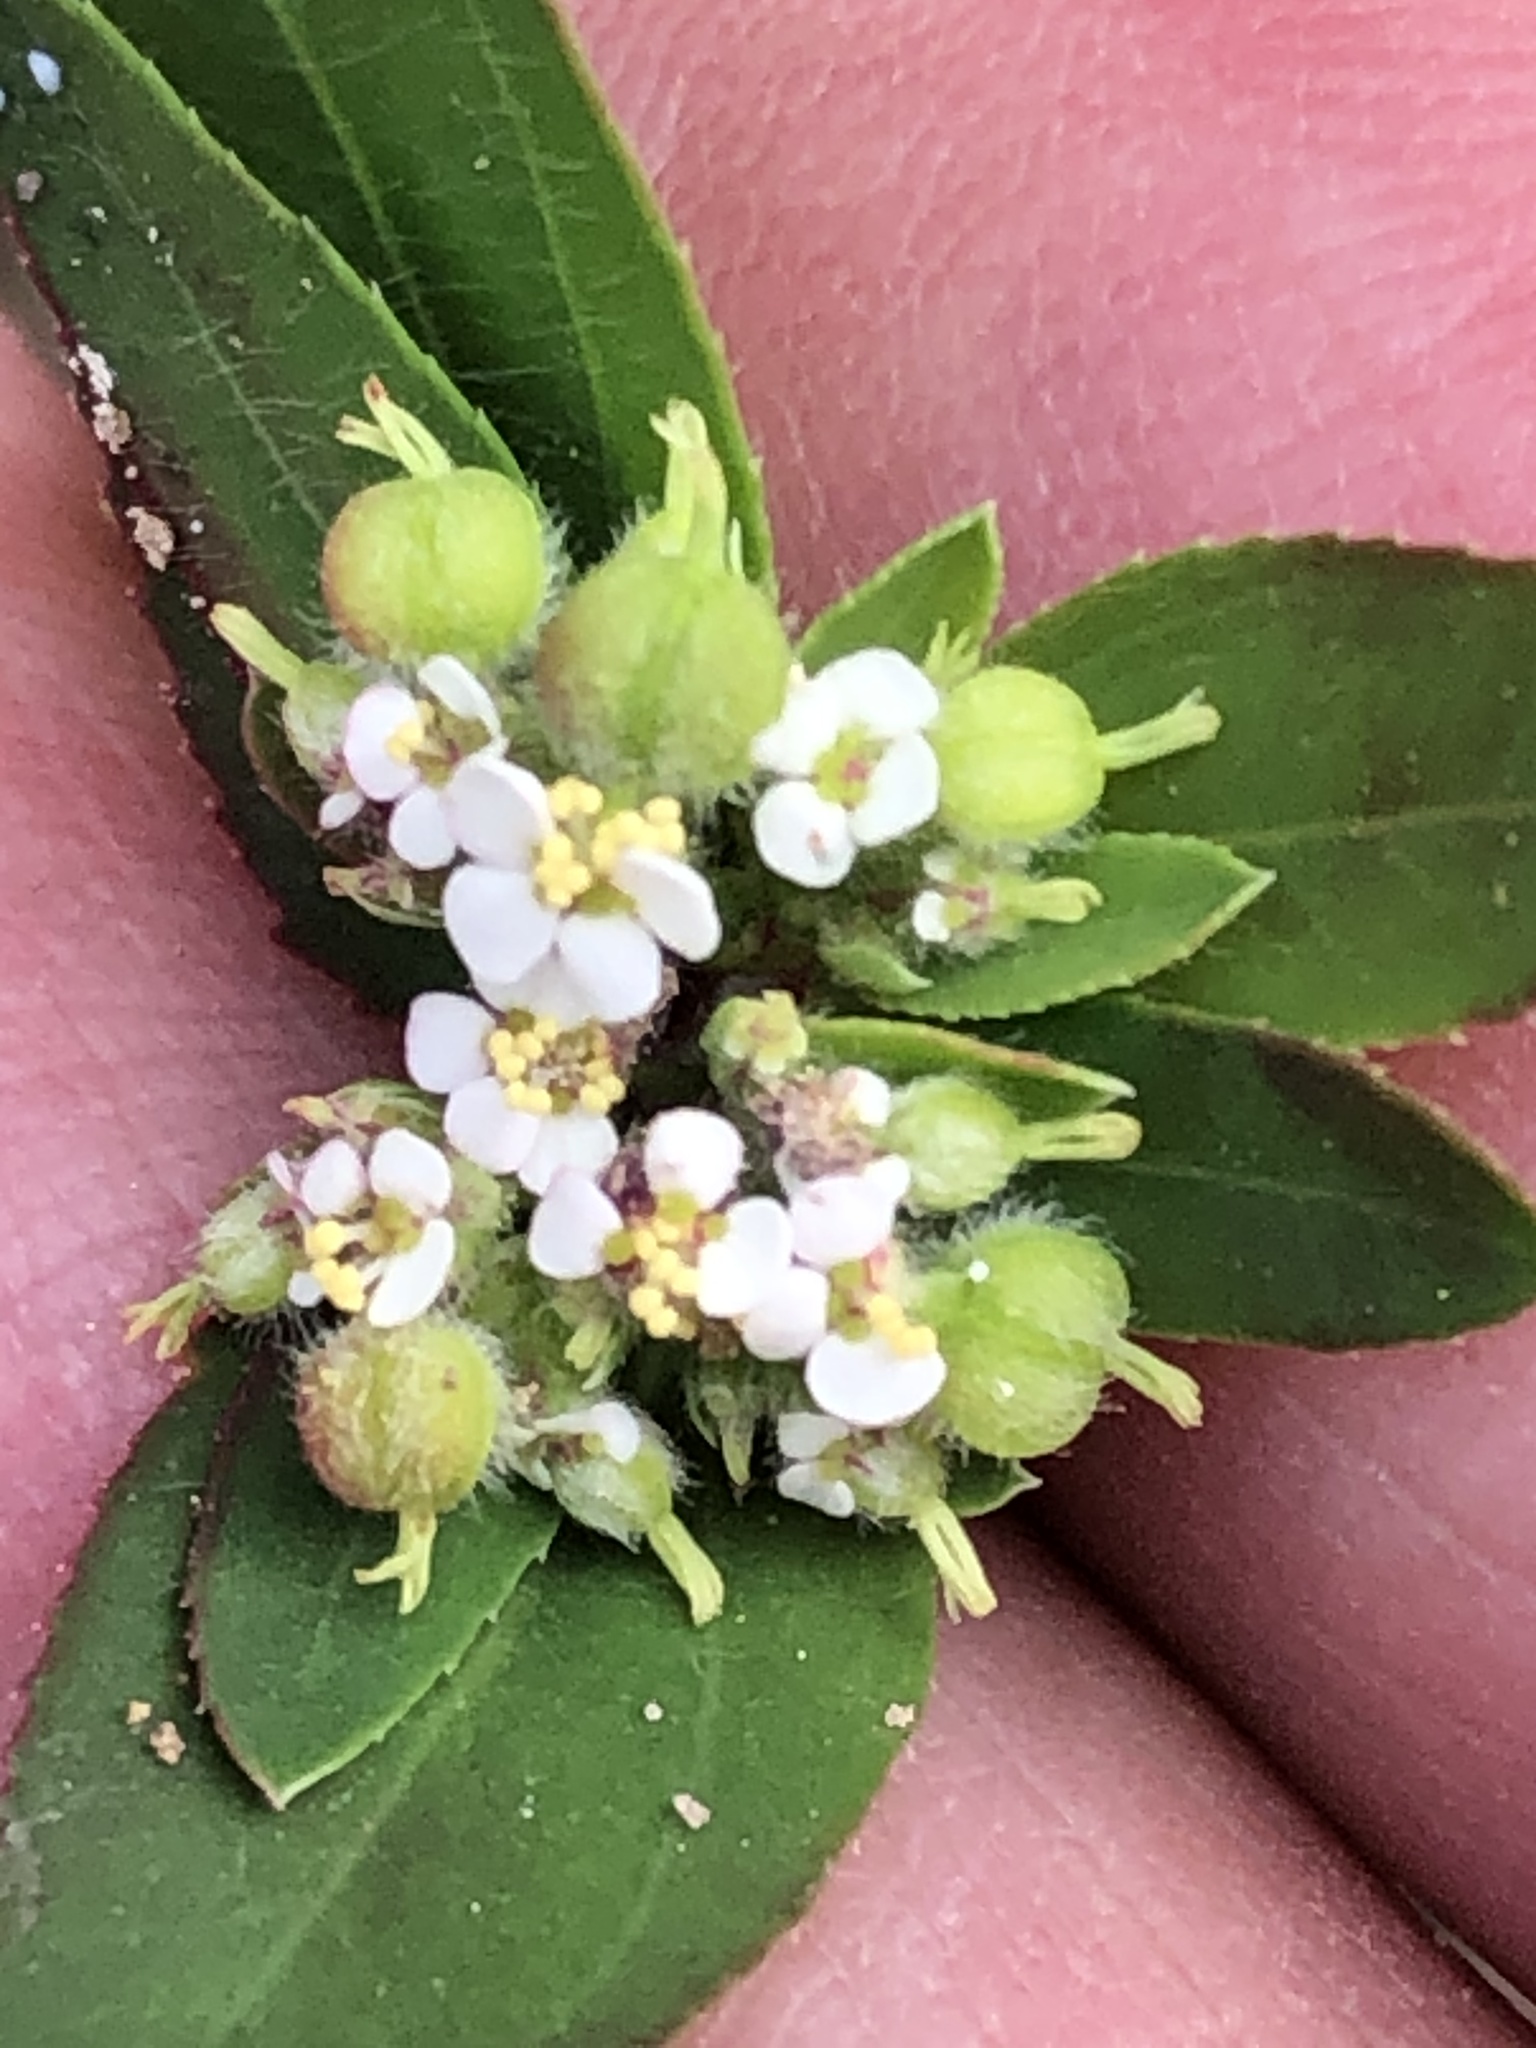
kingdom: Plantae
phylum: Tracheophyta
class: Magnoliopsida
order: Malpighiales
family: Euphorbiaceae
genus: Euphorbia
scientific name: Euphorbia lasiocarpa
